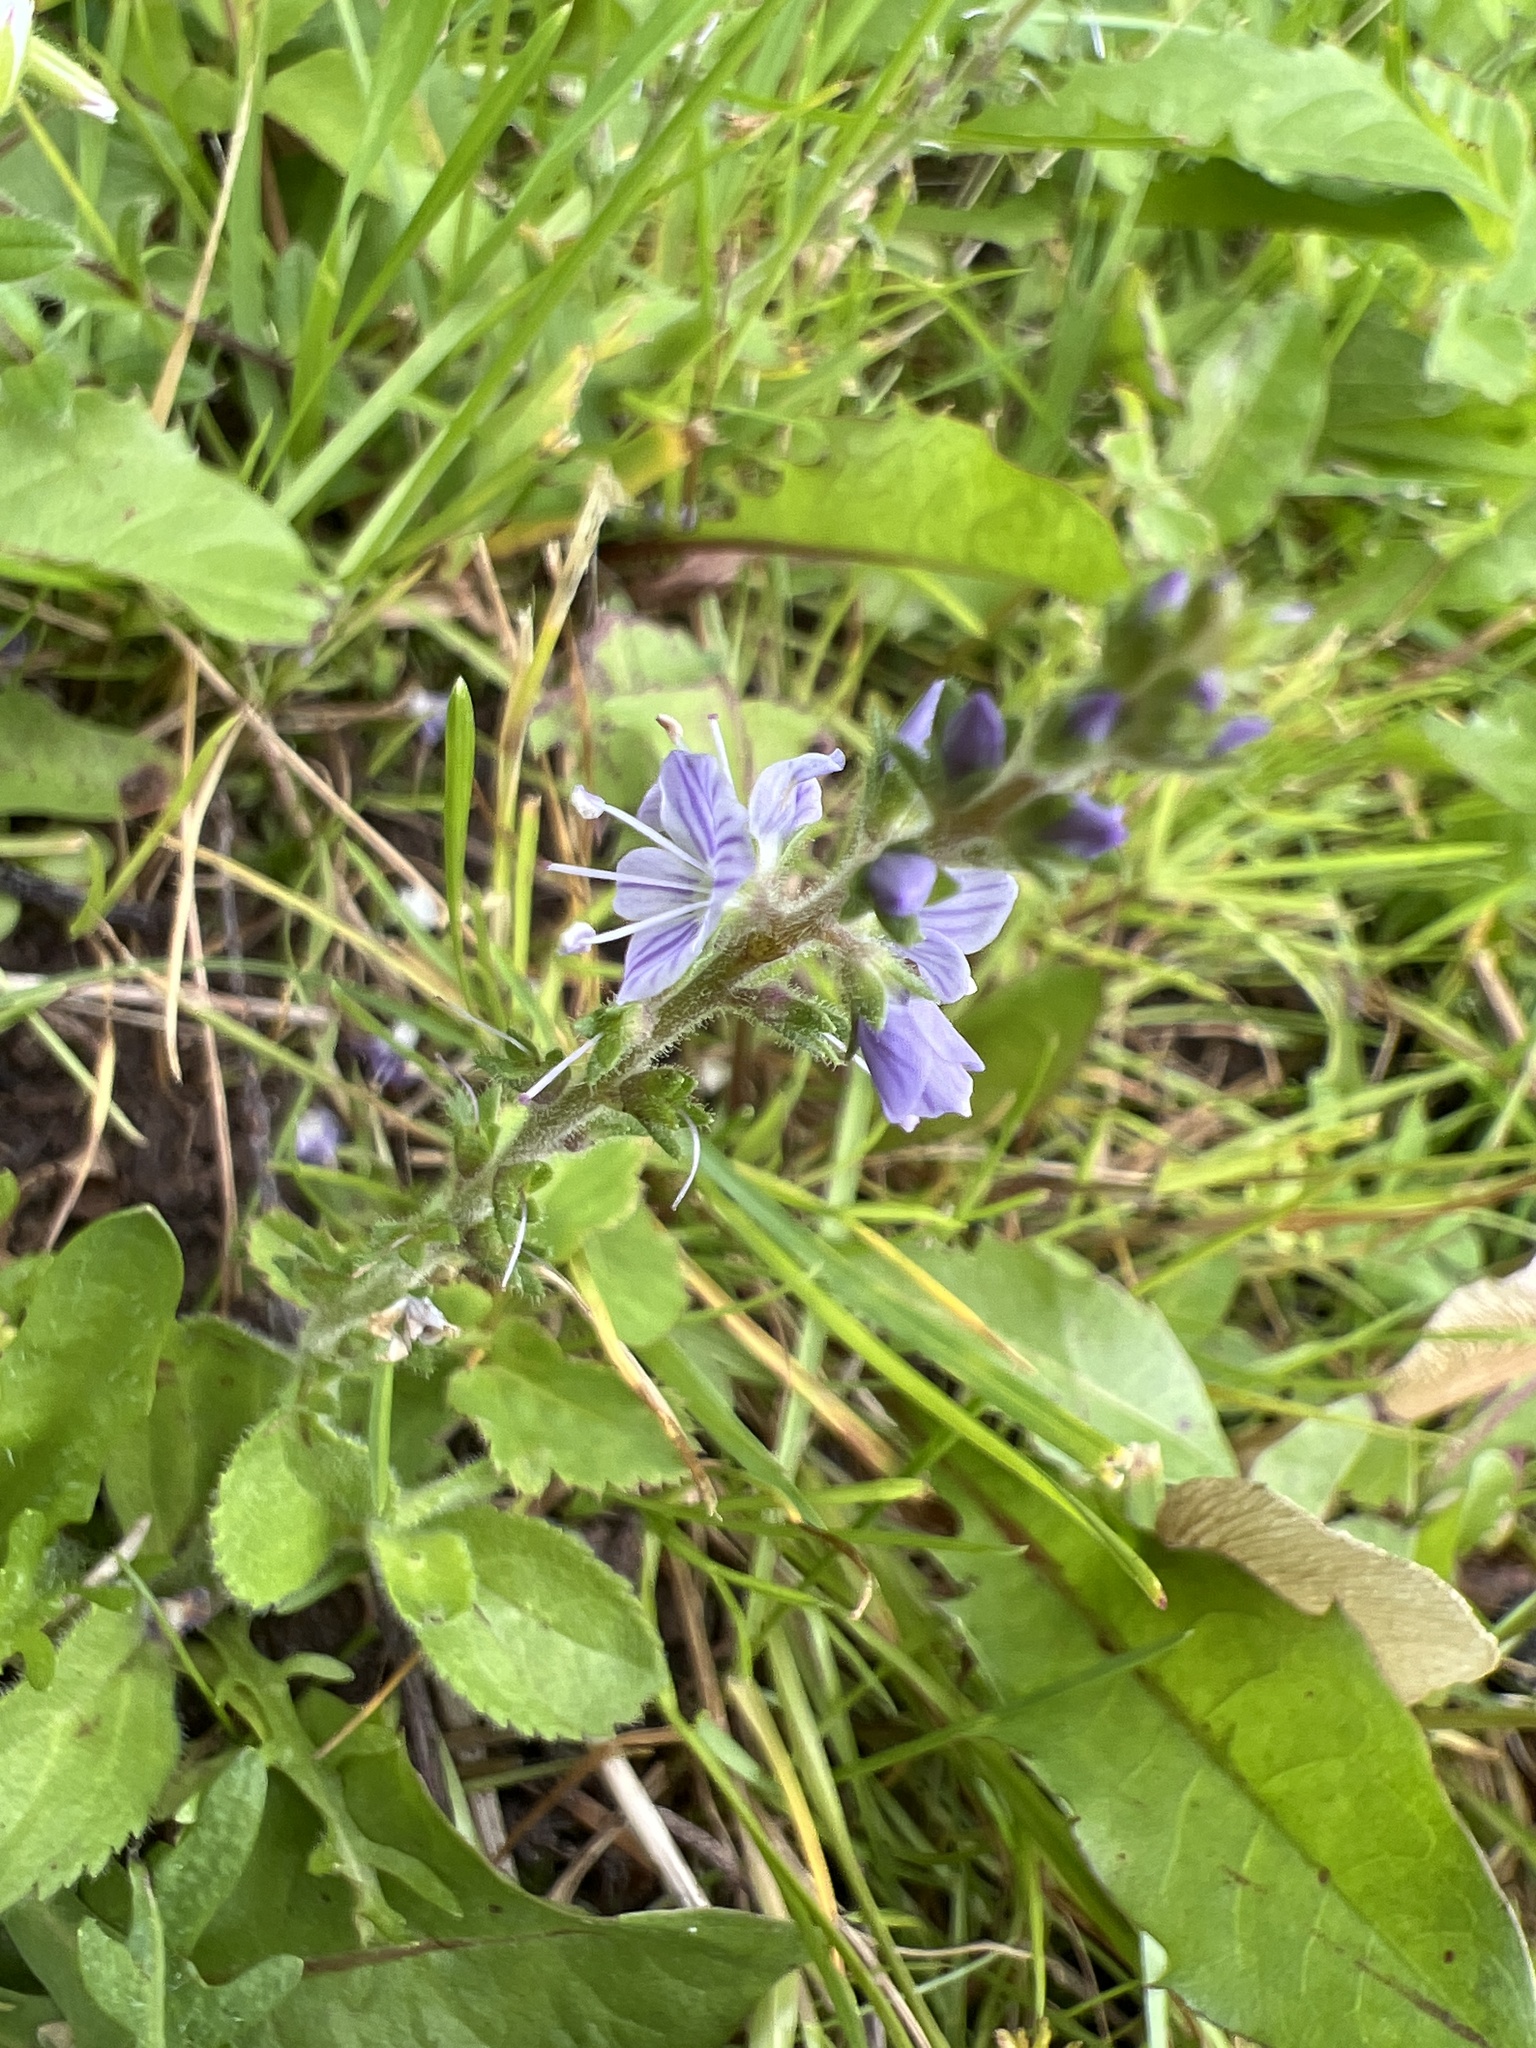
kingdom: Plantae
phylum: Tracheophyta
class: Magnoliopsida
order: Lamiales
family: Plantaginaceae
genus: Veronica
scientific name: Veronica officinalis
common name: Common speedwell
